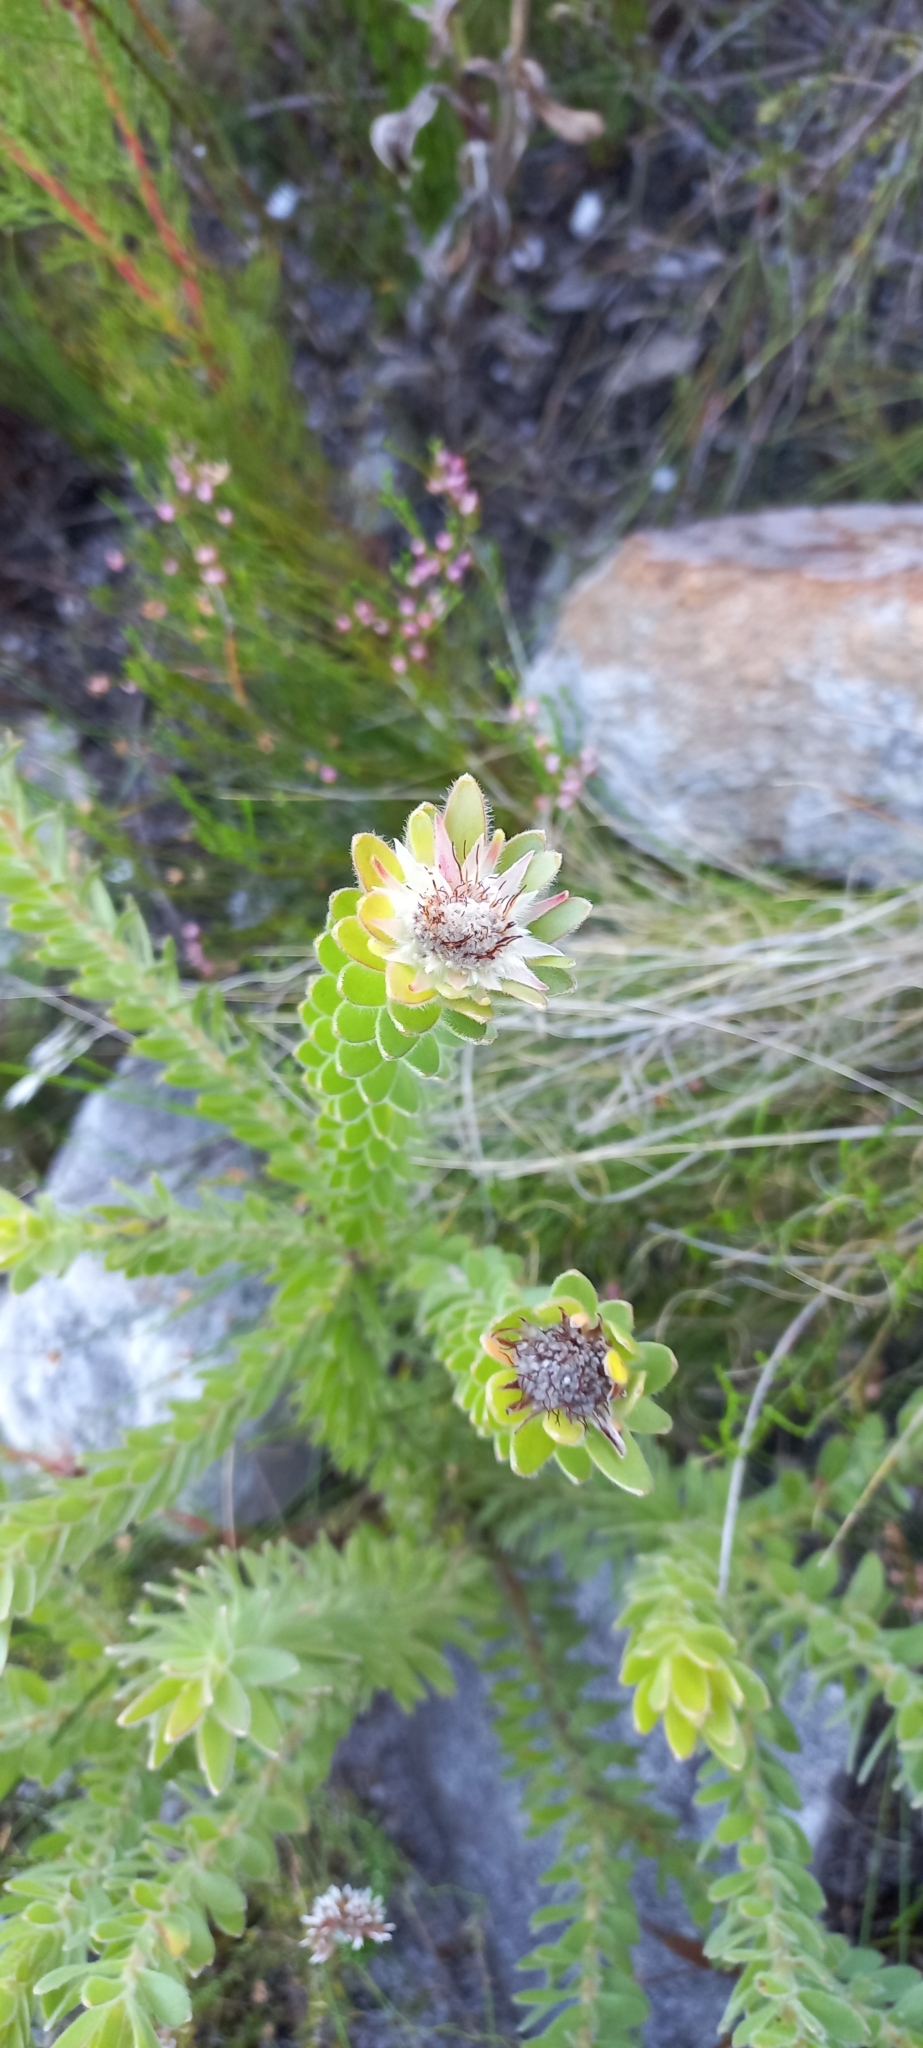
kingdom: Plantae
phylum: Tracheophyta
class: Magnoliopsida
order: Proteales
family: Proteaceae
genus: Diastella
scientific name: Diastella thymelaeoides
